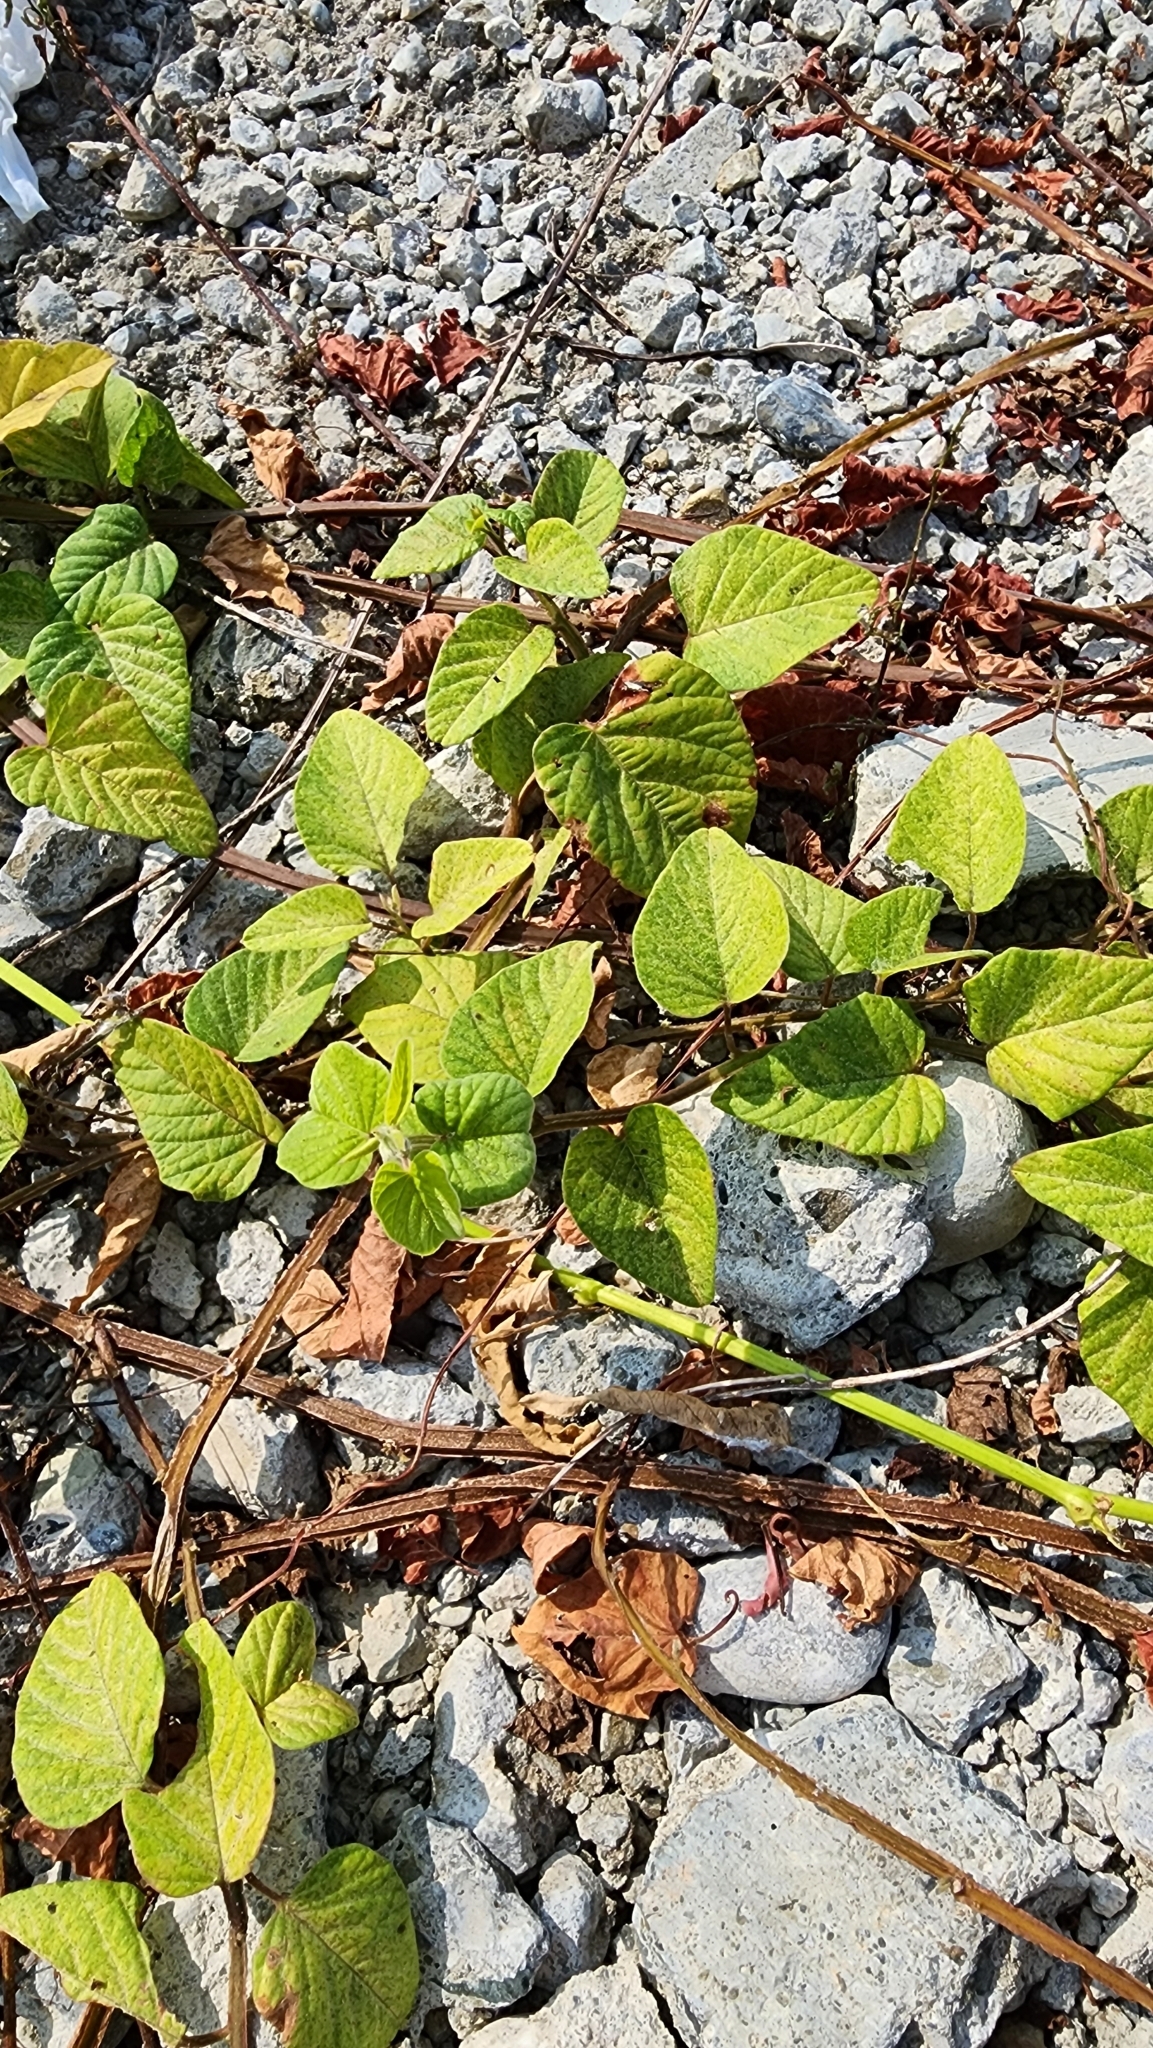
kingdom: Plantae
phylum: Tracheophyta
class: Magnoliopsida
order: Solanales
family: Convolvulaceae
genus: Operculina
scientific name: Operculina turpethum
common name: Transparent wood-rose
